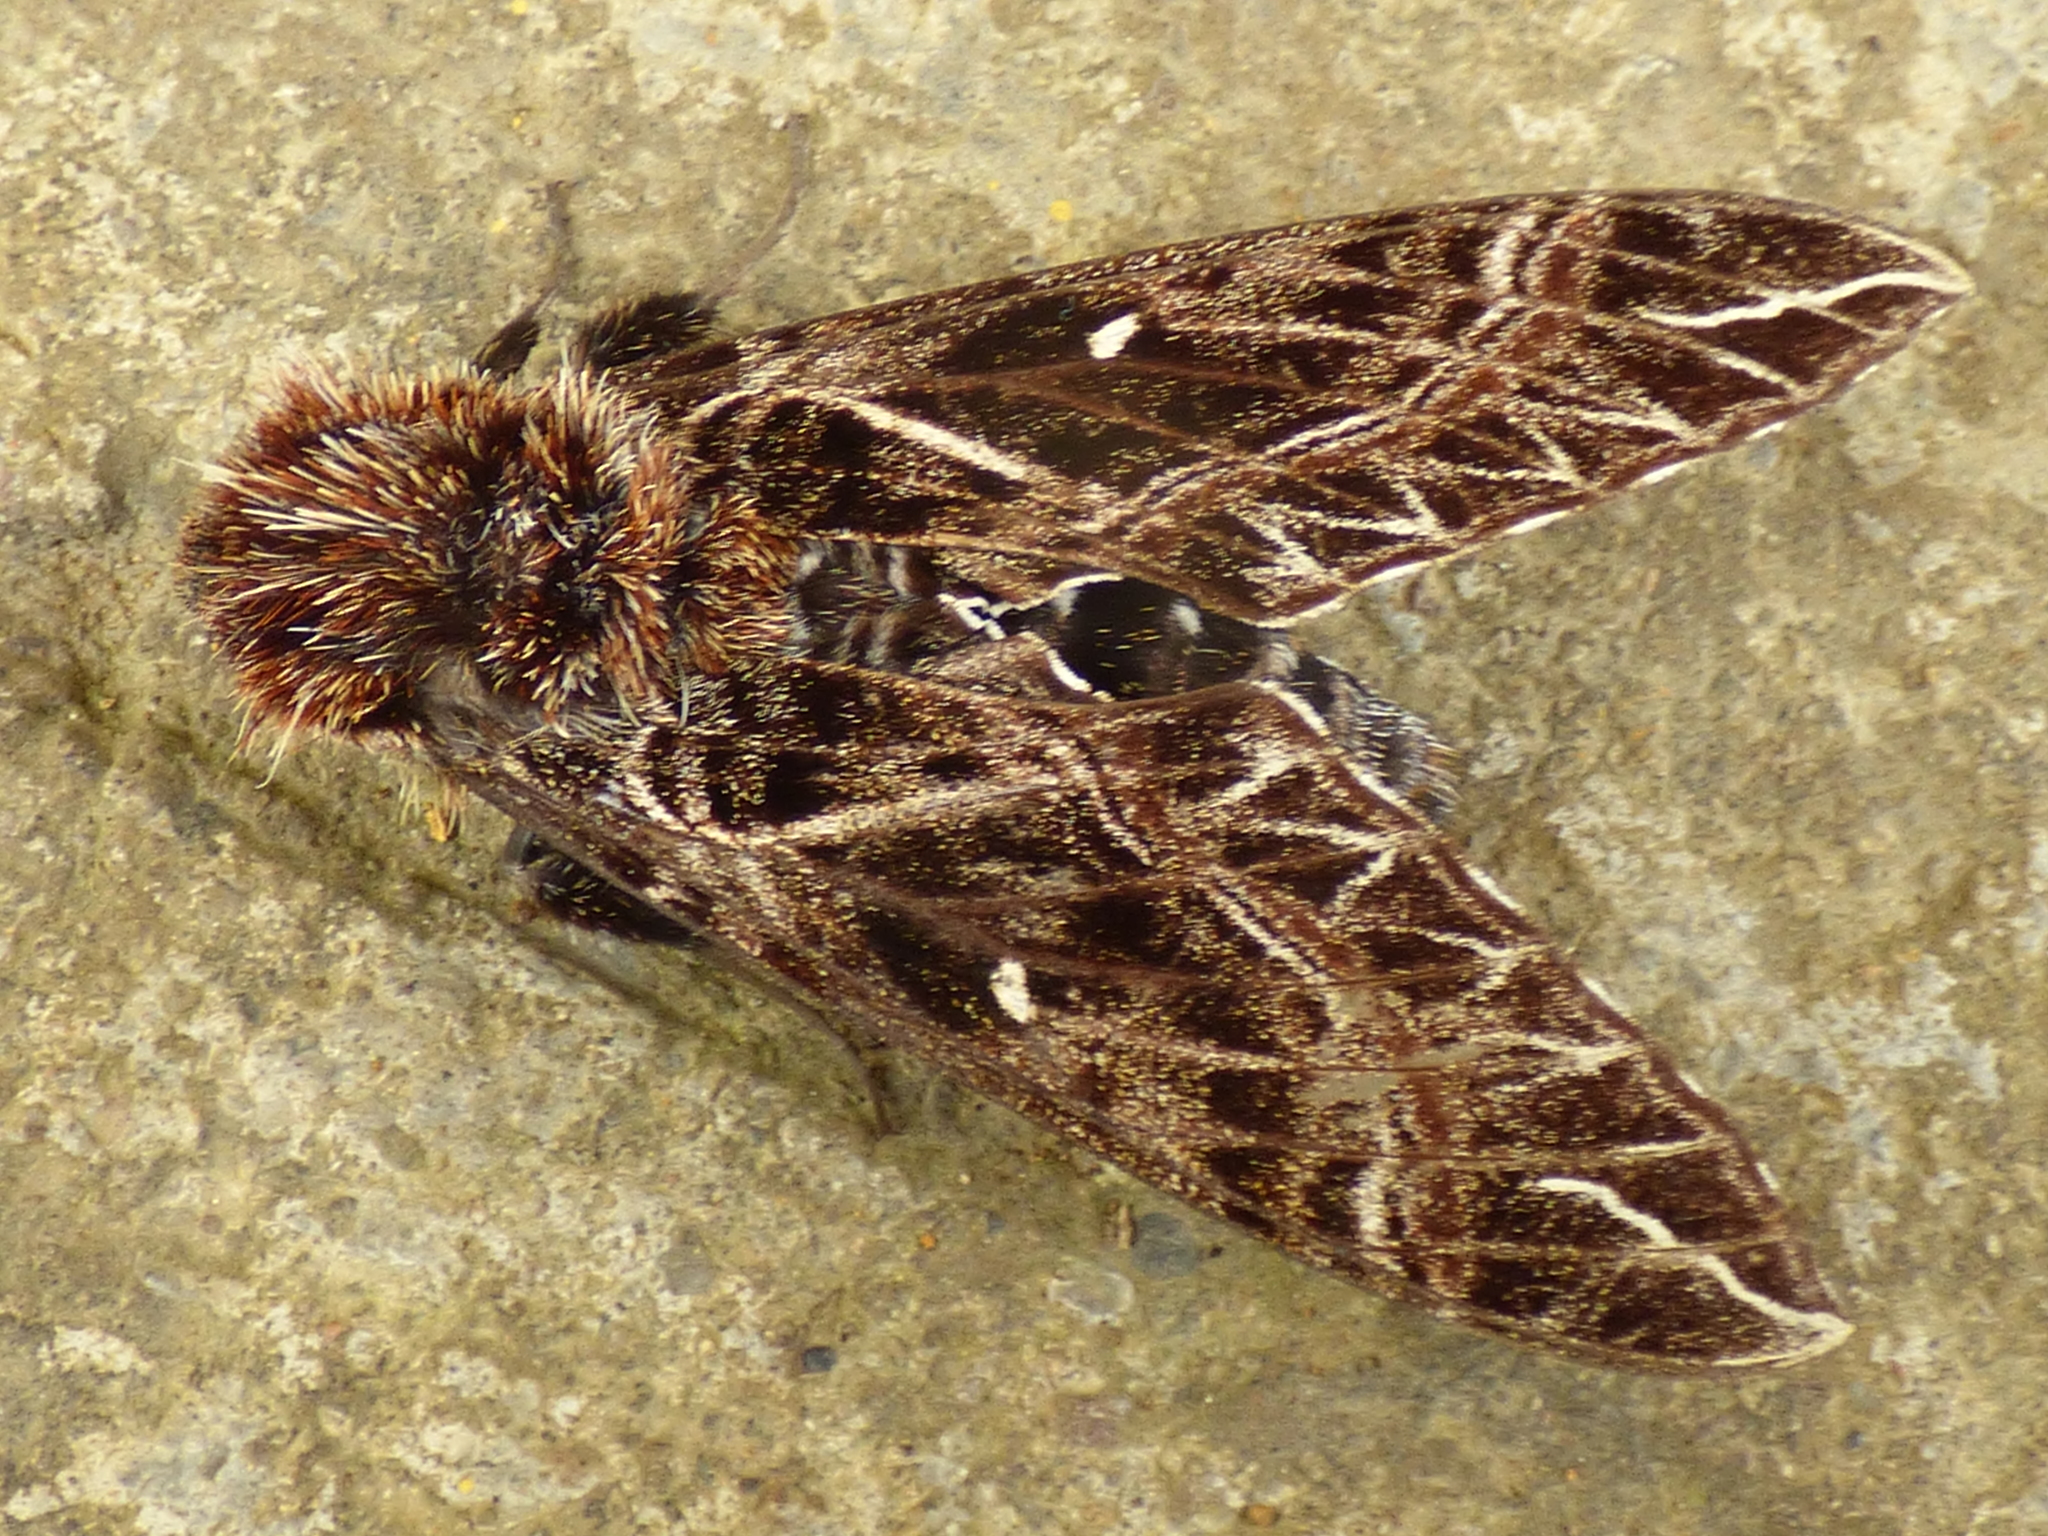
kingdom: Animalia
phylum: Arthropoda
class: Insecta
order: Lepidoptera
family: Sphingidae
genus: Euryglottis
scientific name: Euryglottis aper
